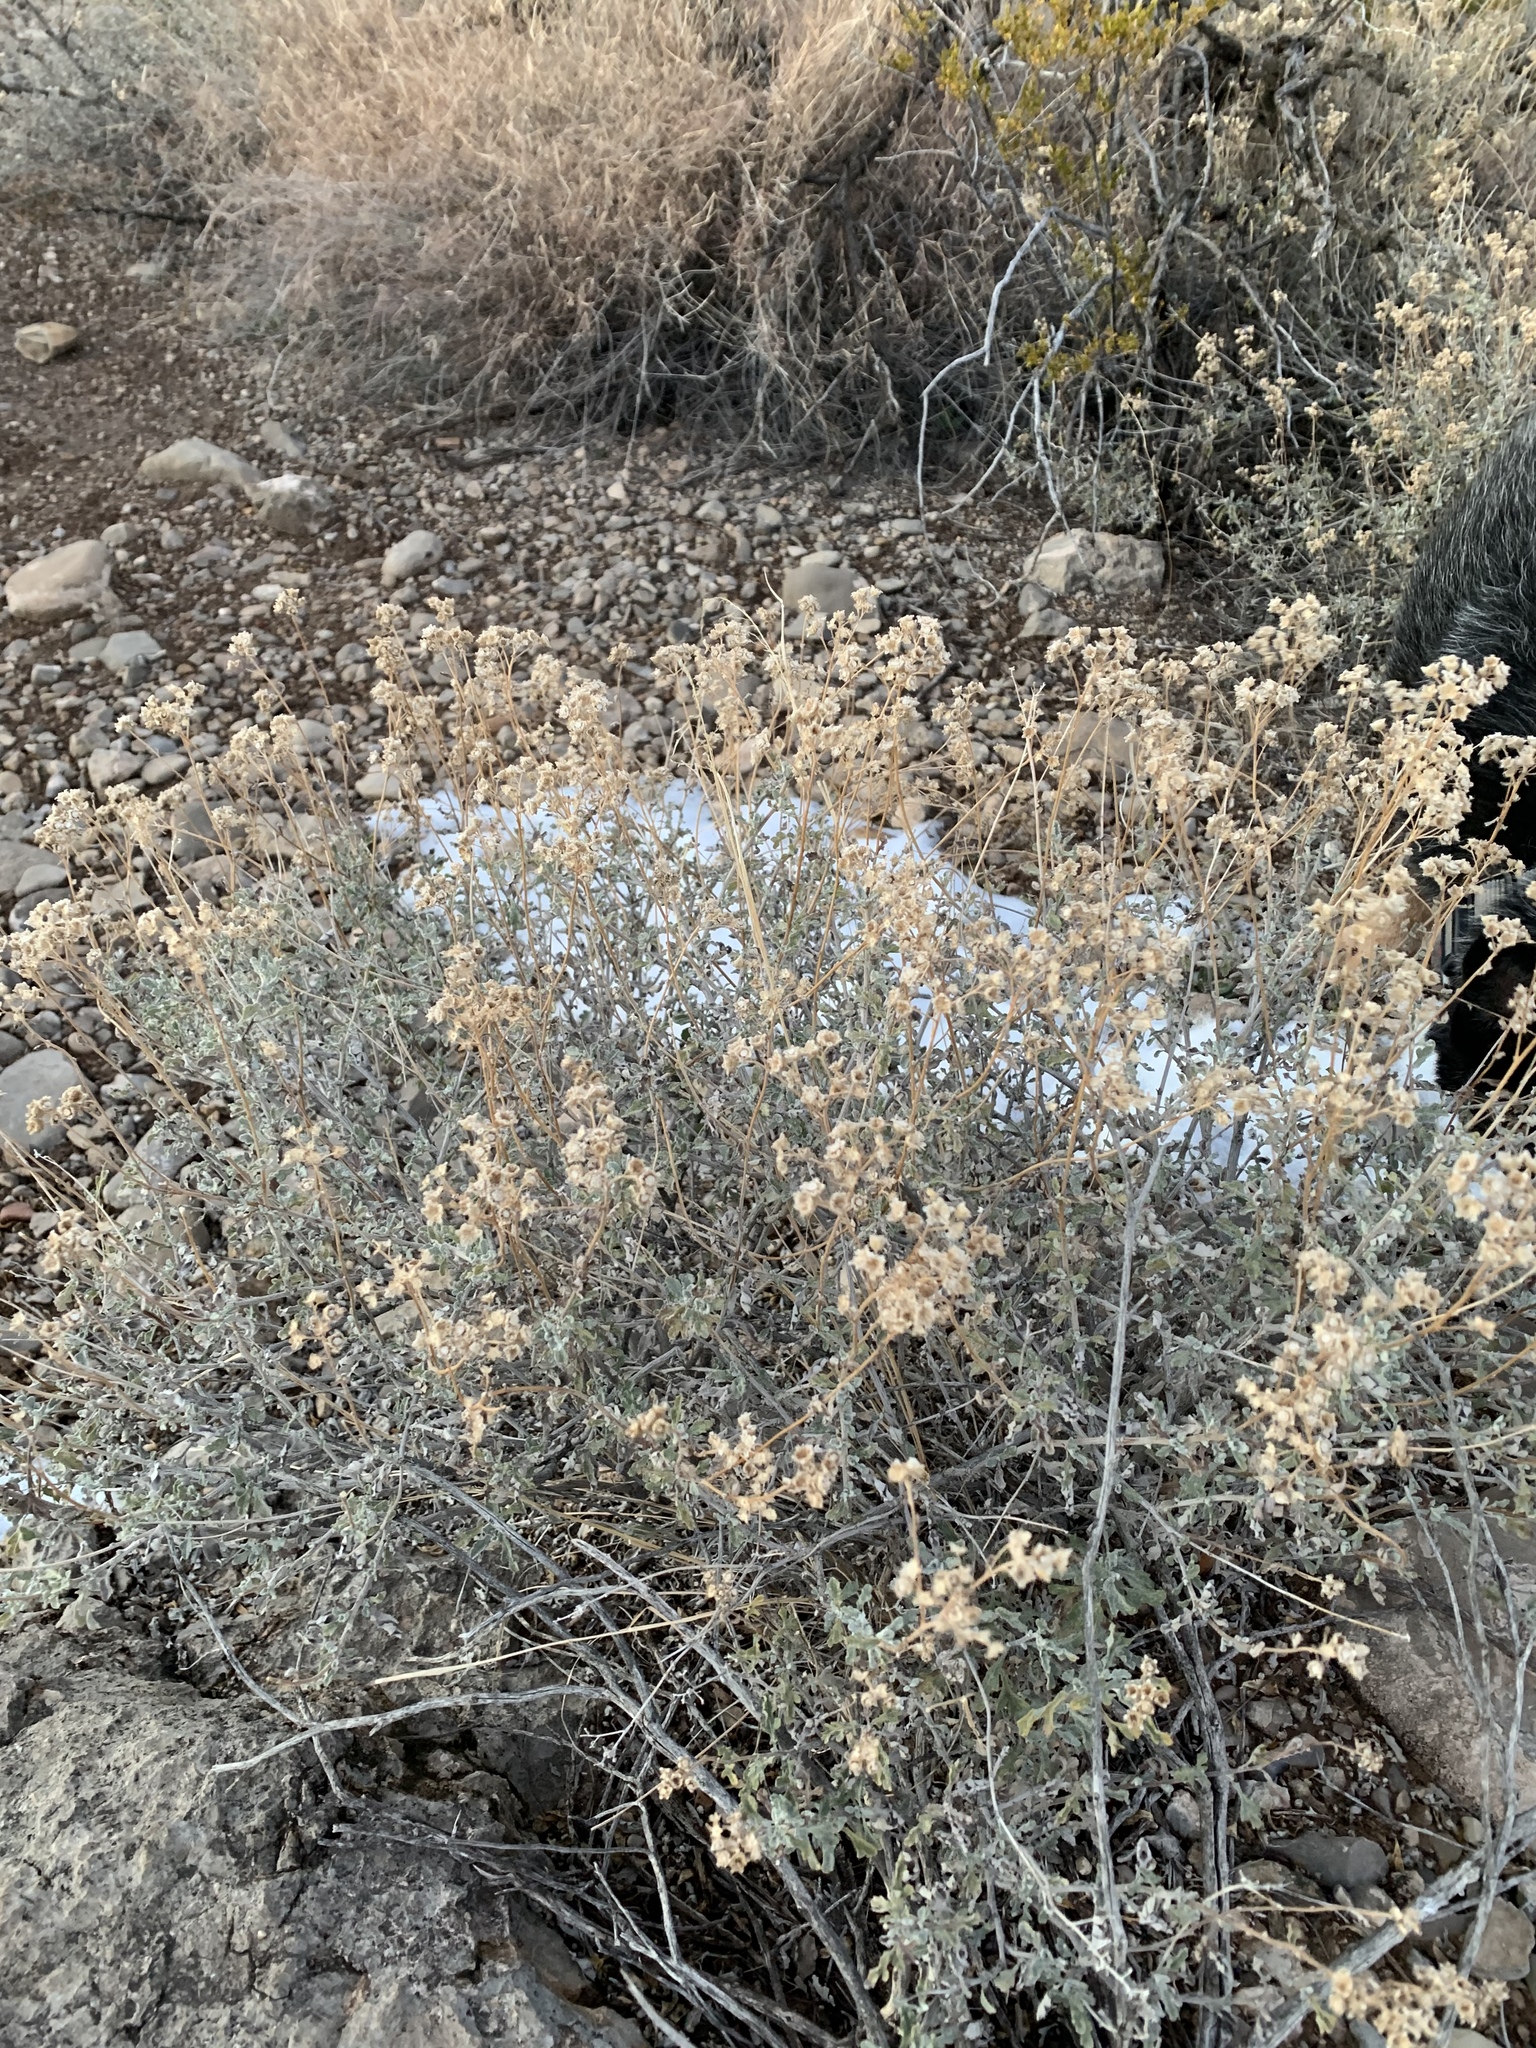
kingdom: Plantae
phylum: Tracheophyta
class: Magnoliopsida
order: Asterales
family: Asteraceae
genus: Parthenium
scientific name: Parthenium incanum
